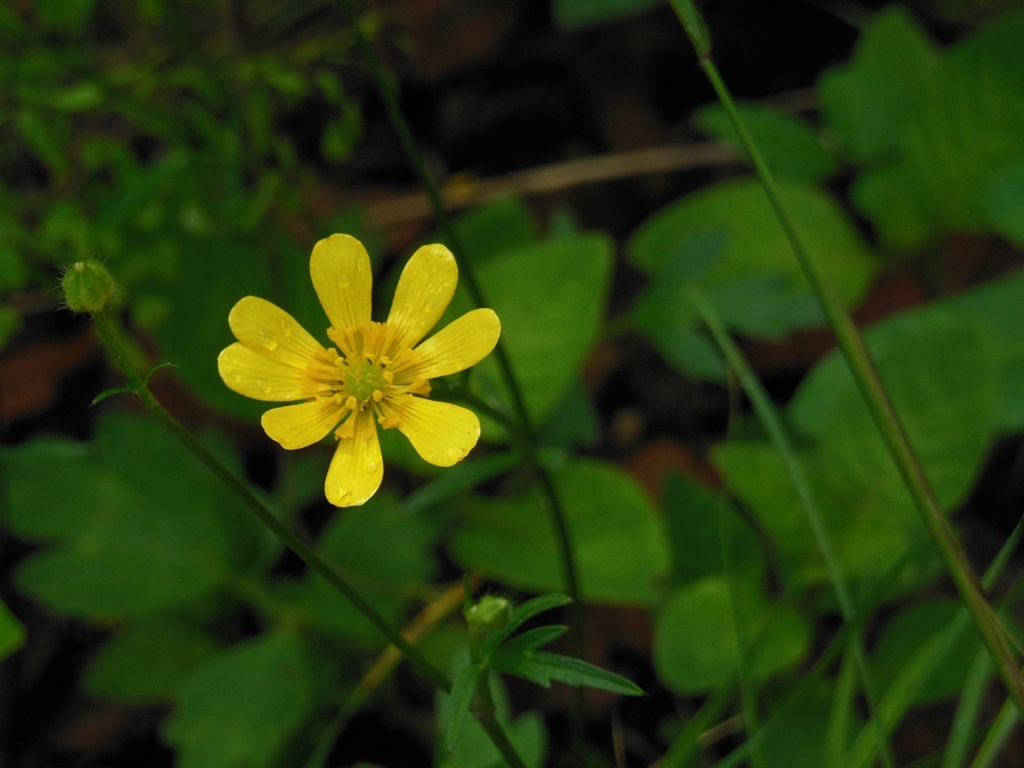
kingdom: Plantae
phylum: Tracheophyta
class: Magnoliopsida
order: Ranunculales
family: Ranunculaceae
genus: Ranunculus
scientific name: Ranunculus pilosus
